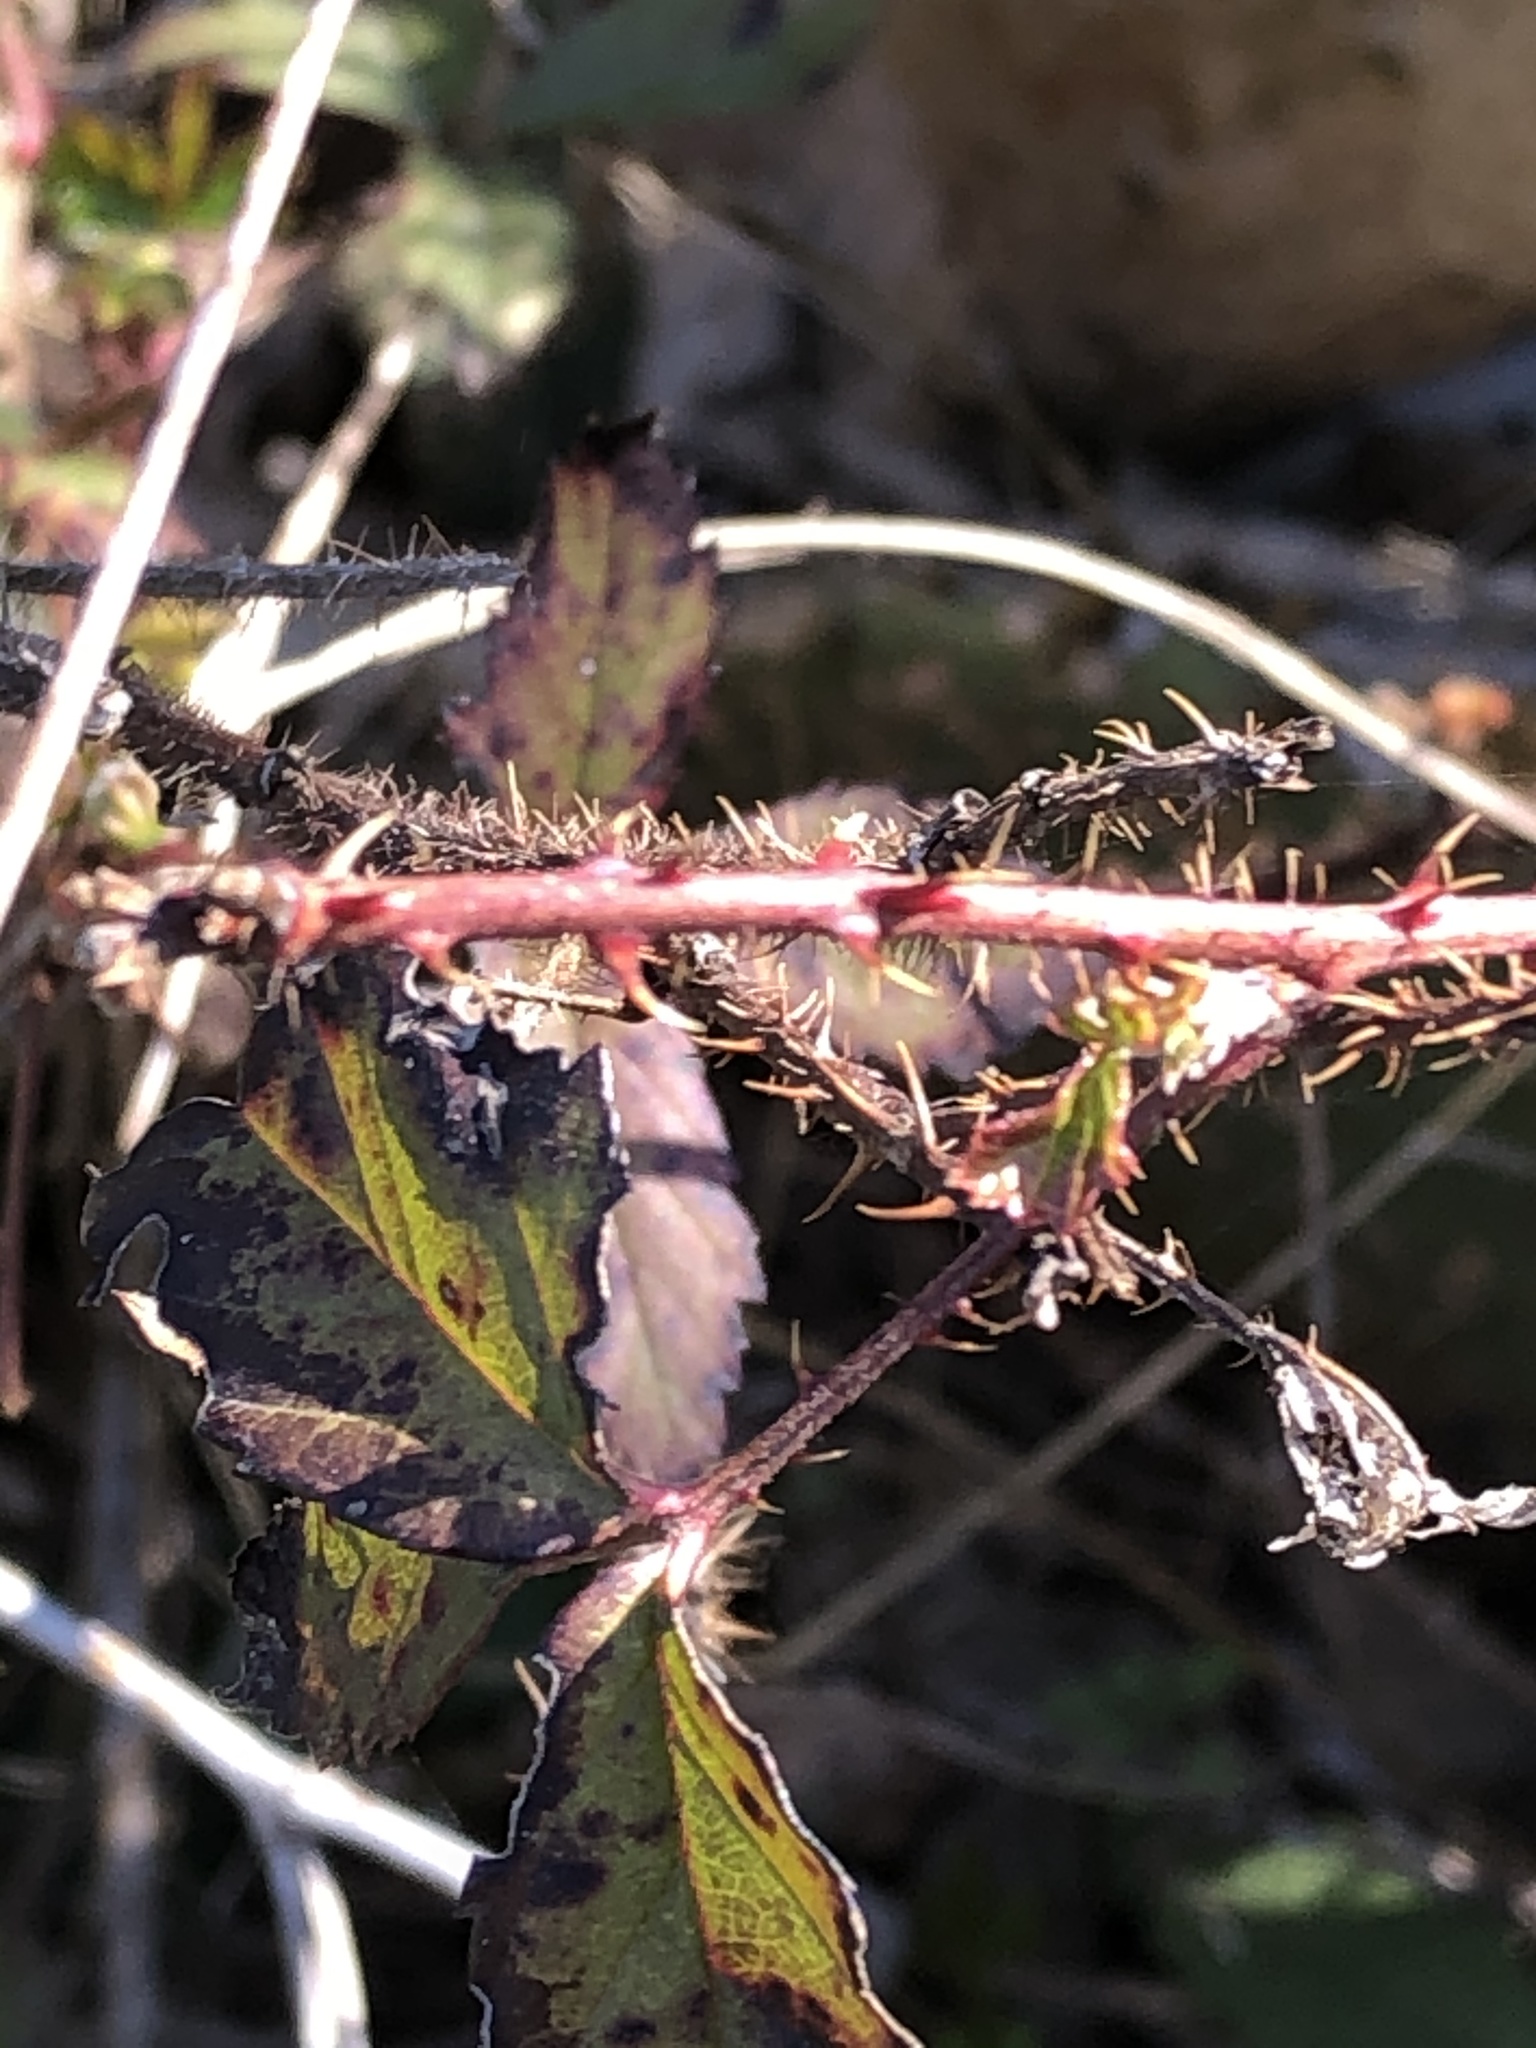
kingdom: Plantae
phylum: Tracheophyta
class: Magnoliopsida
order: Rosales
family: Rosaceae
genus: Rubus
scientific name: Rubus trivialis
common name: Southern dewberry
